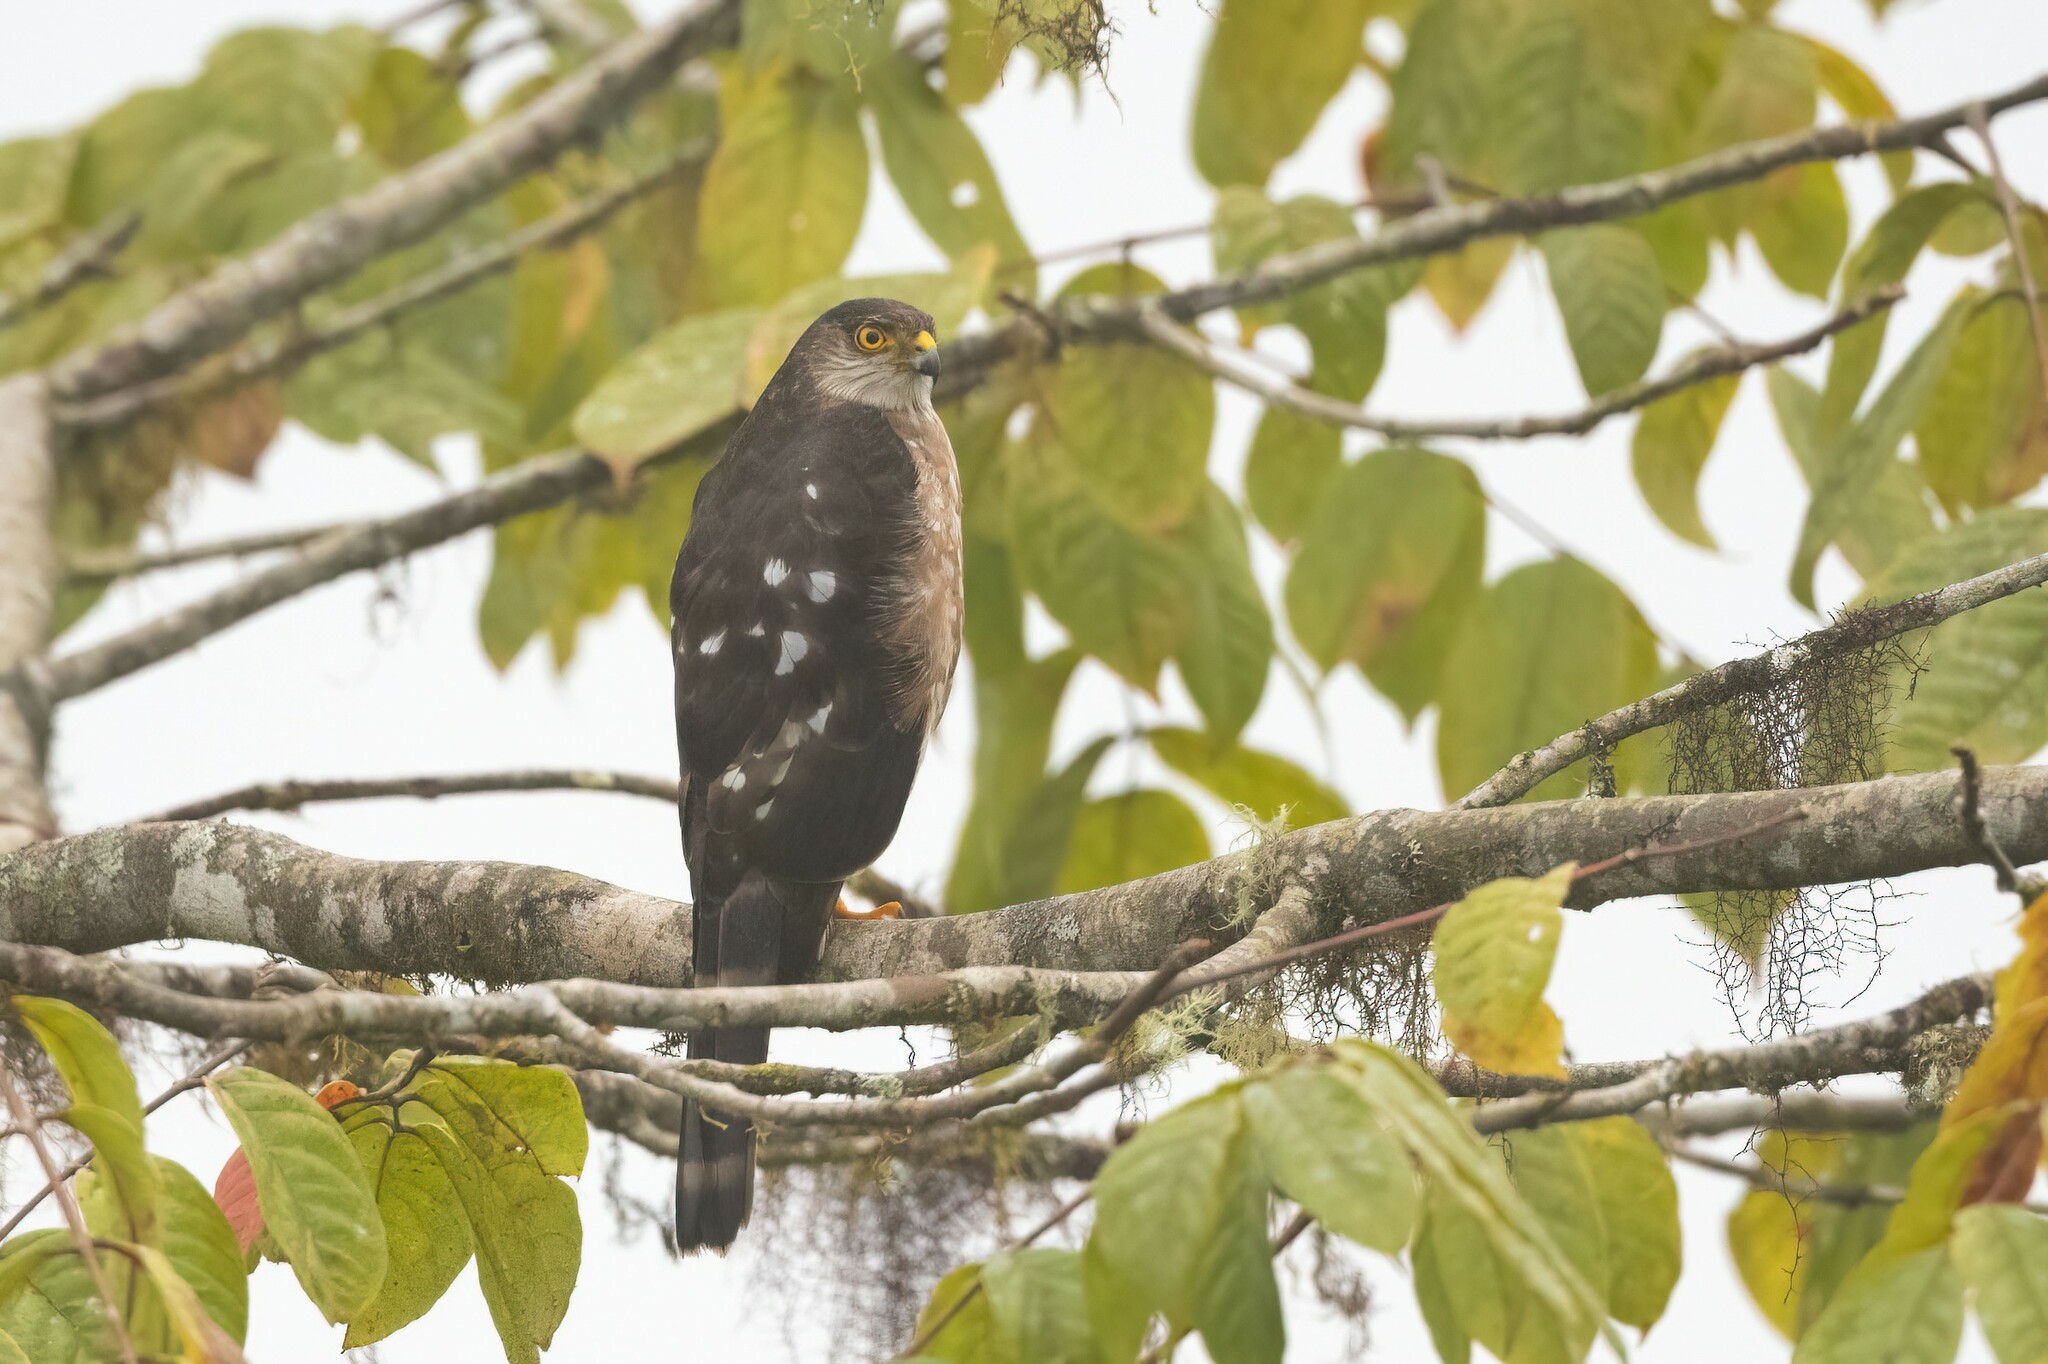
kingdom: Animalia
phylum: Chordata
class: Aves
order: Accipitriformes
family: Accipitridae
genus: Accipiter
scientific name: Accipiter striatus
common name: Sharp-shinned hawk
